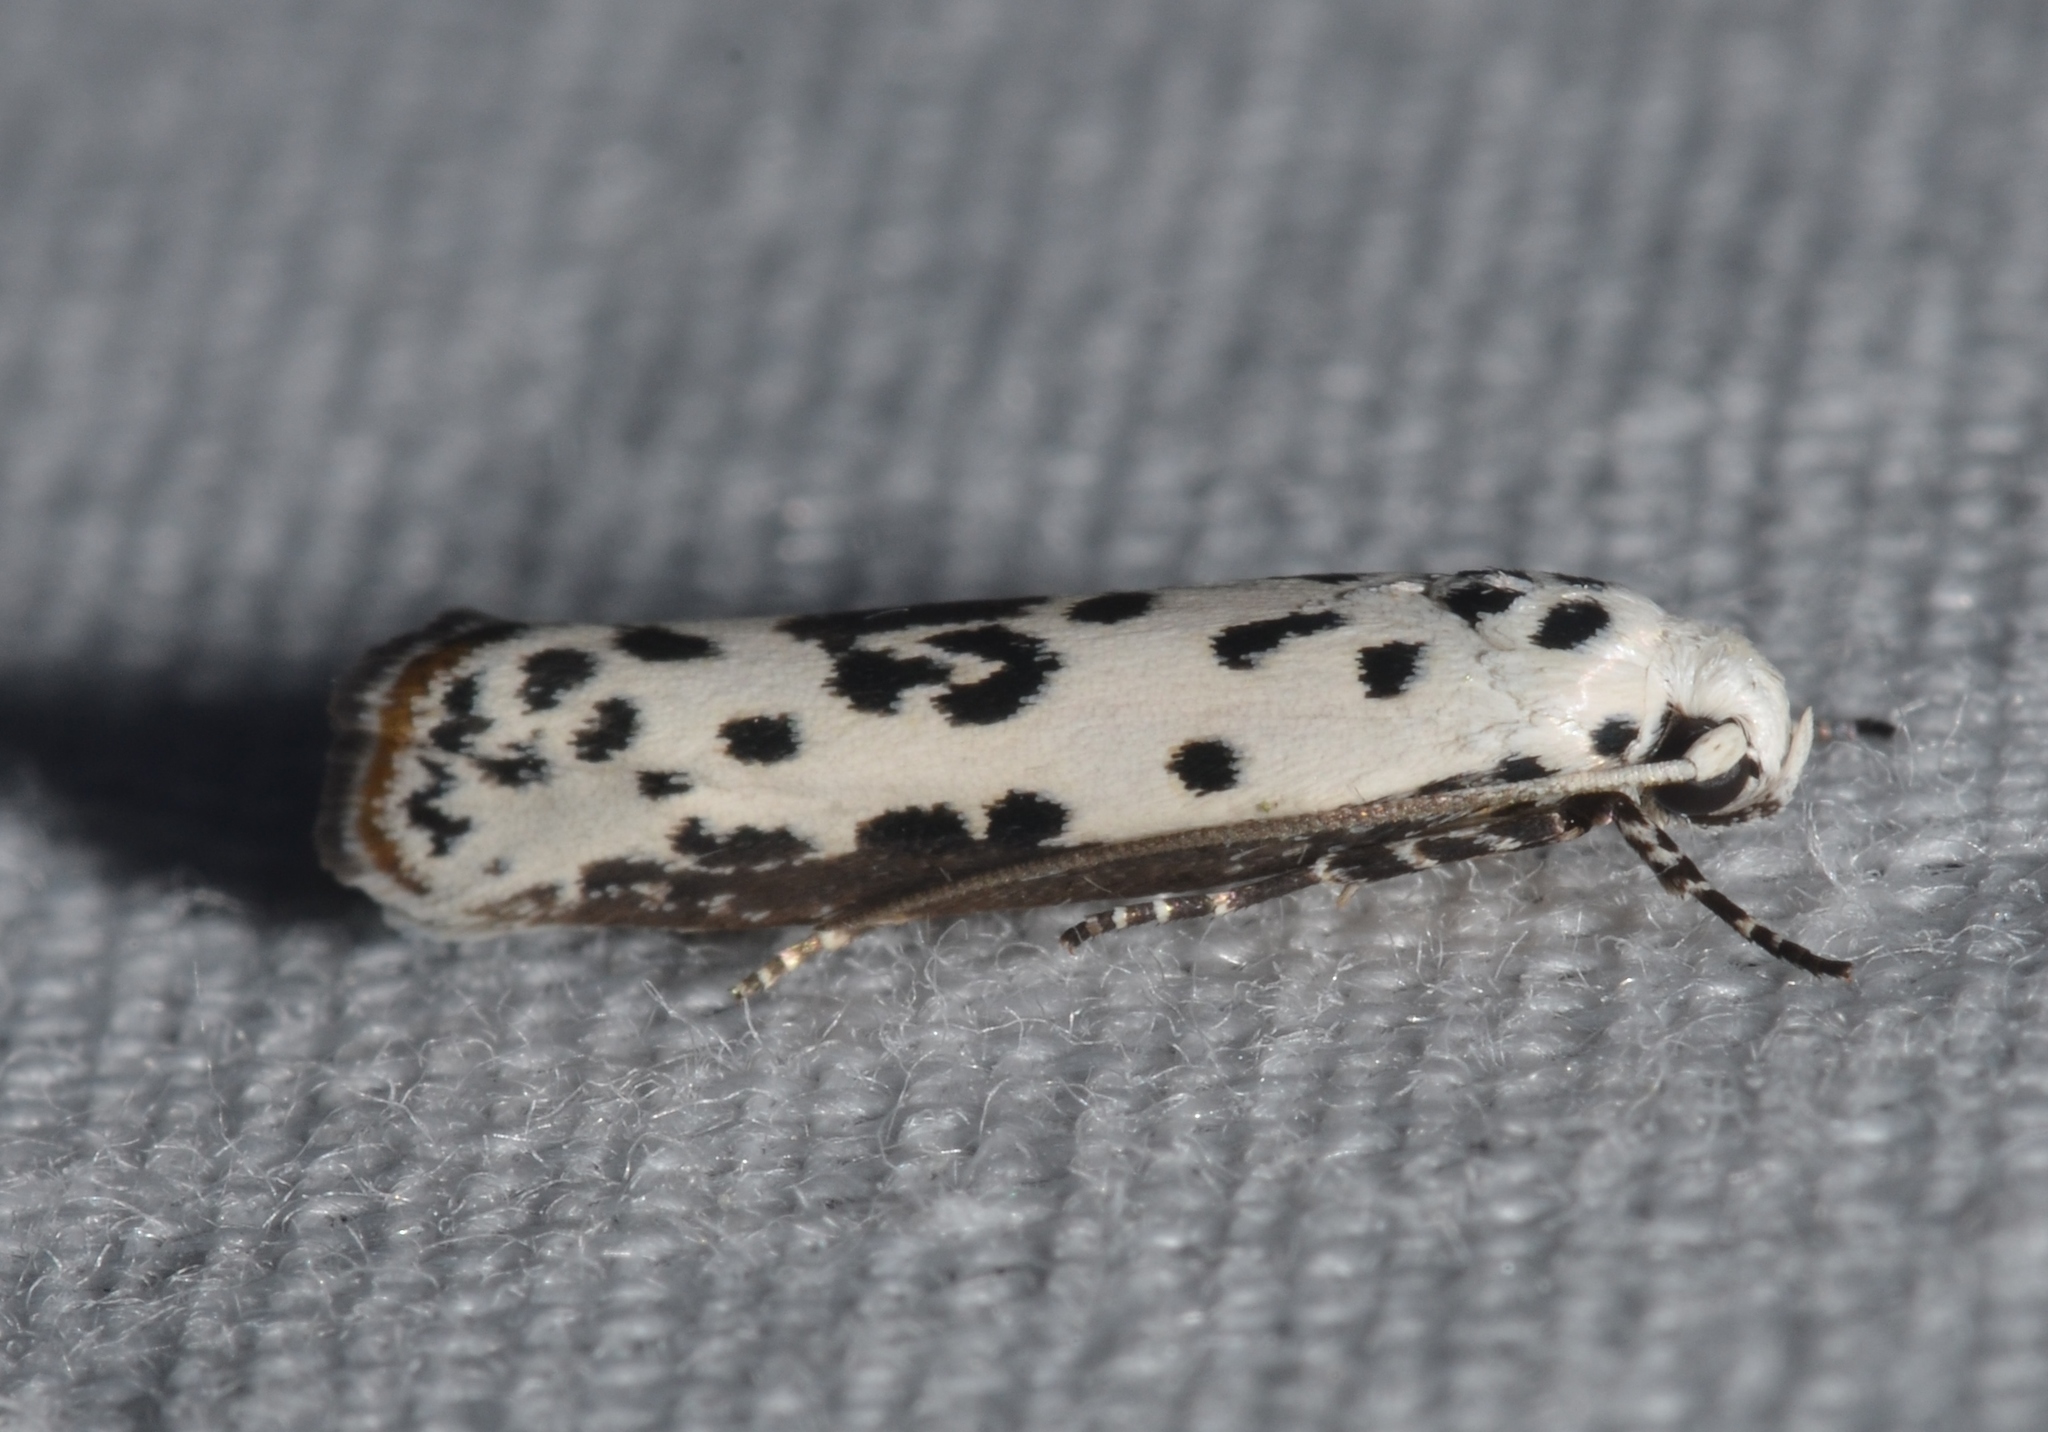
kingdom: Animalia
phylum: Arthropoda
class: Insecta
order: Lepidoptera
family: Ethmiidae
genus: Ethmia
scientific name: Ethmia bittenella
